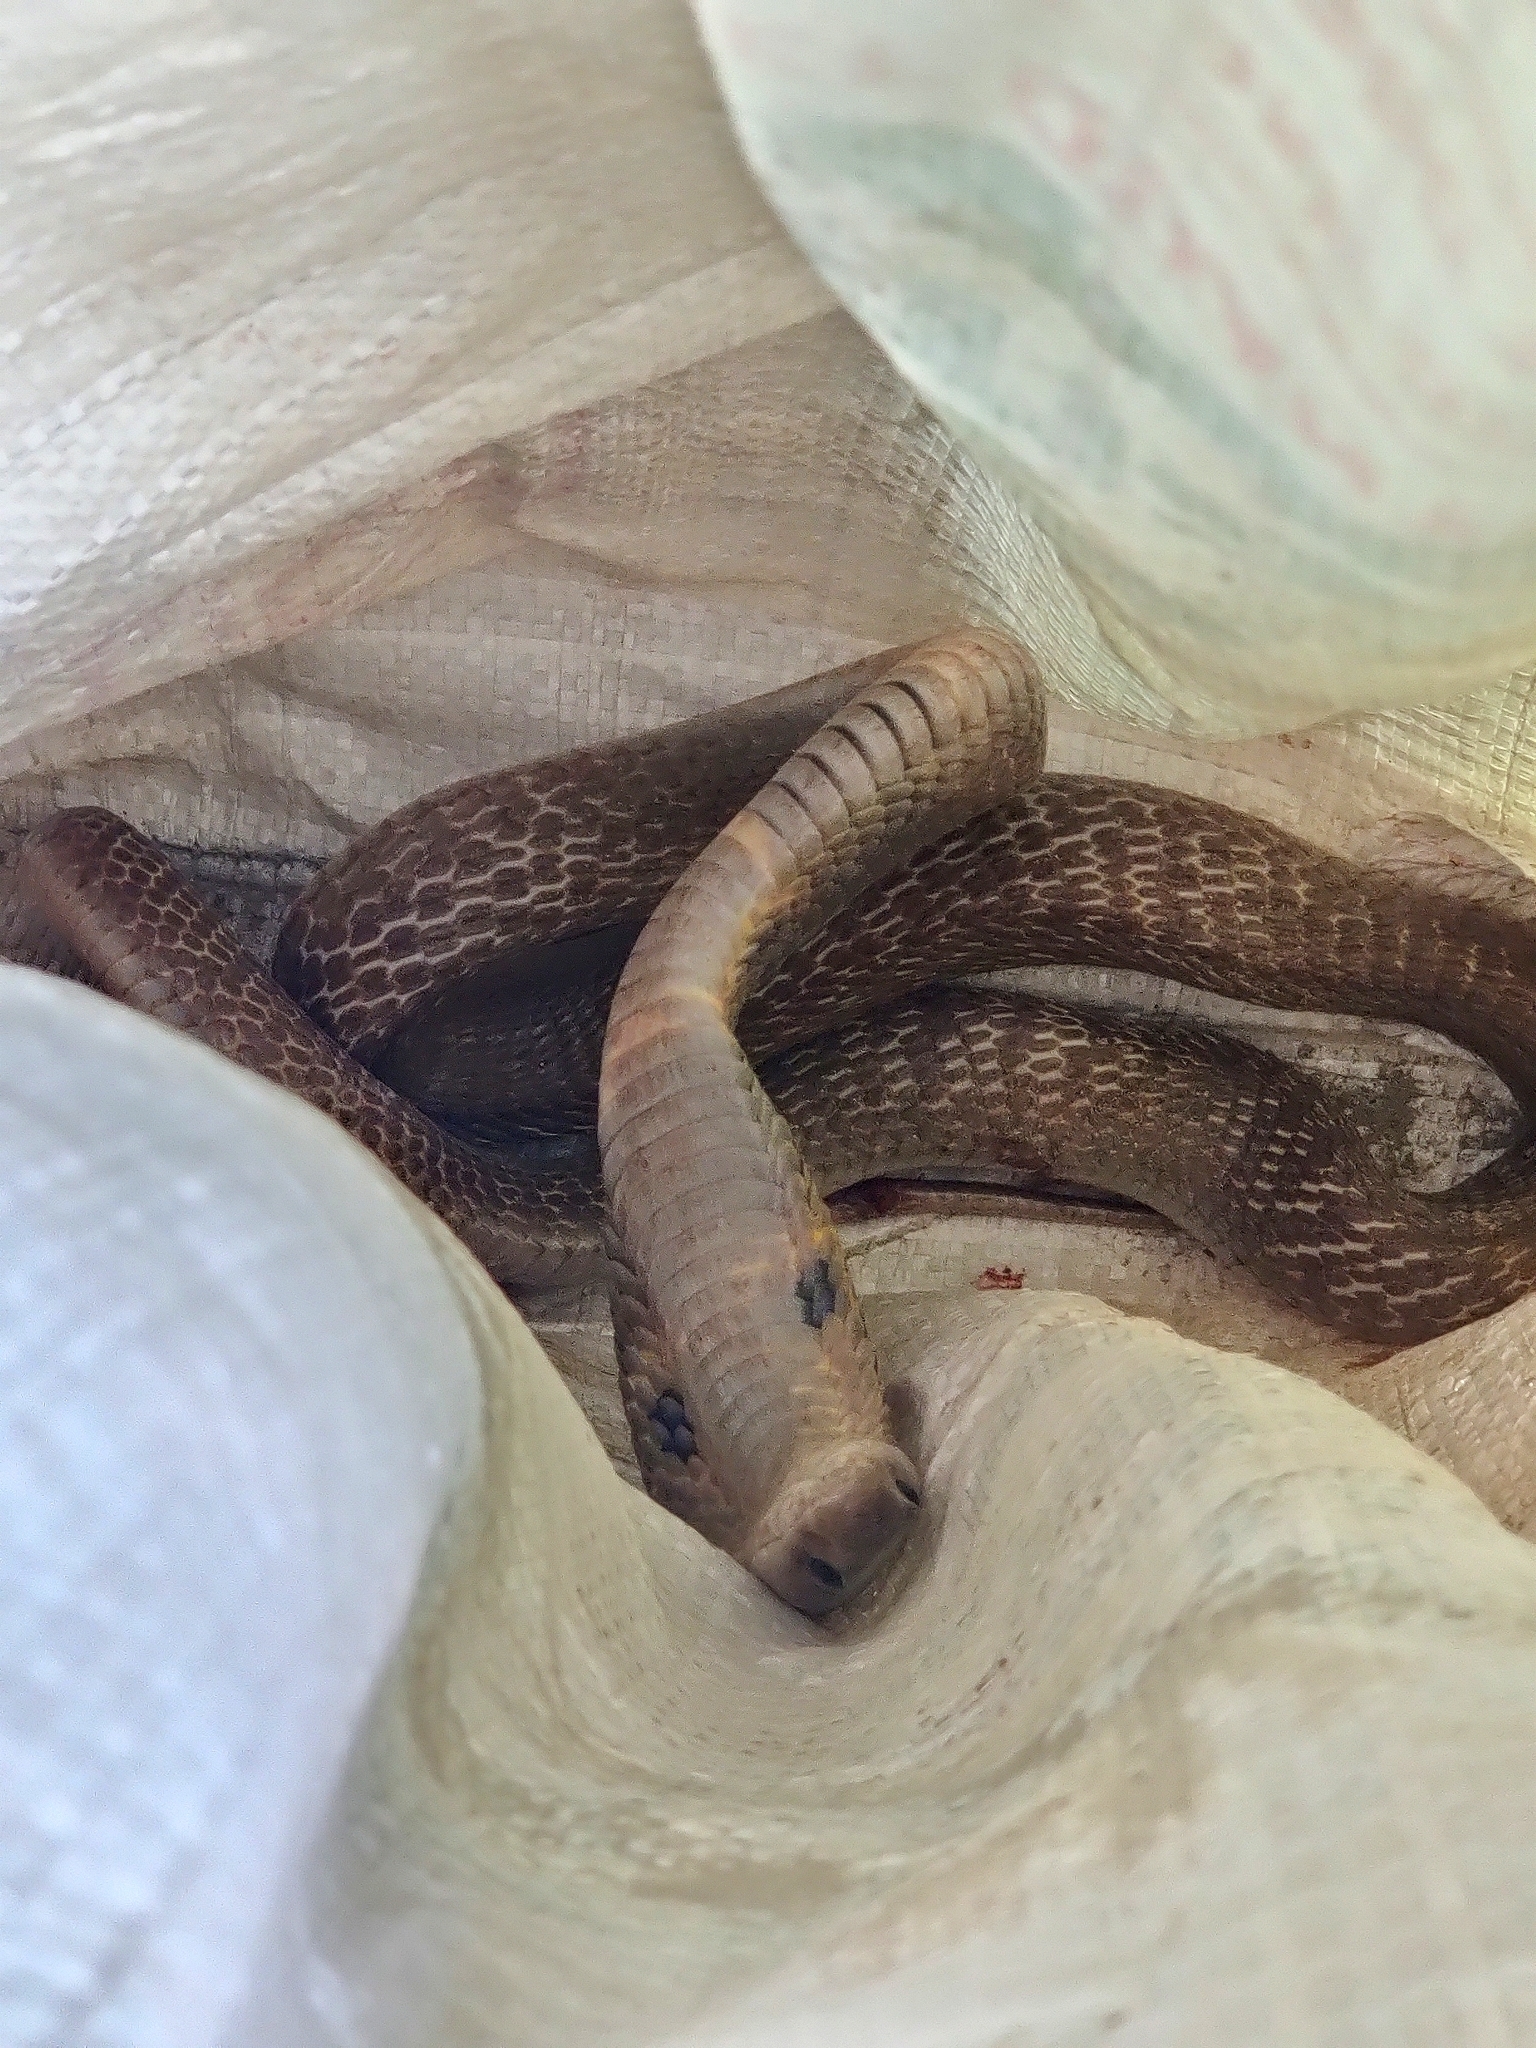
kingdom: Animalia
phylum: Chordata
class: Squamata
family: Elapidae
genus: Naja
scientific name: Naja naja
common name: Indian cobra
